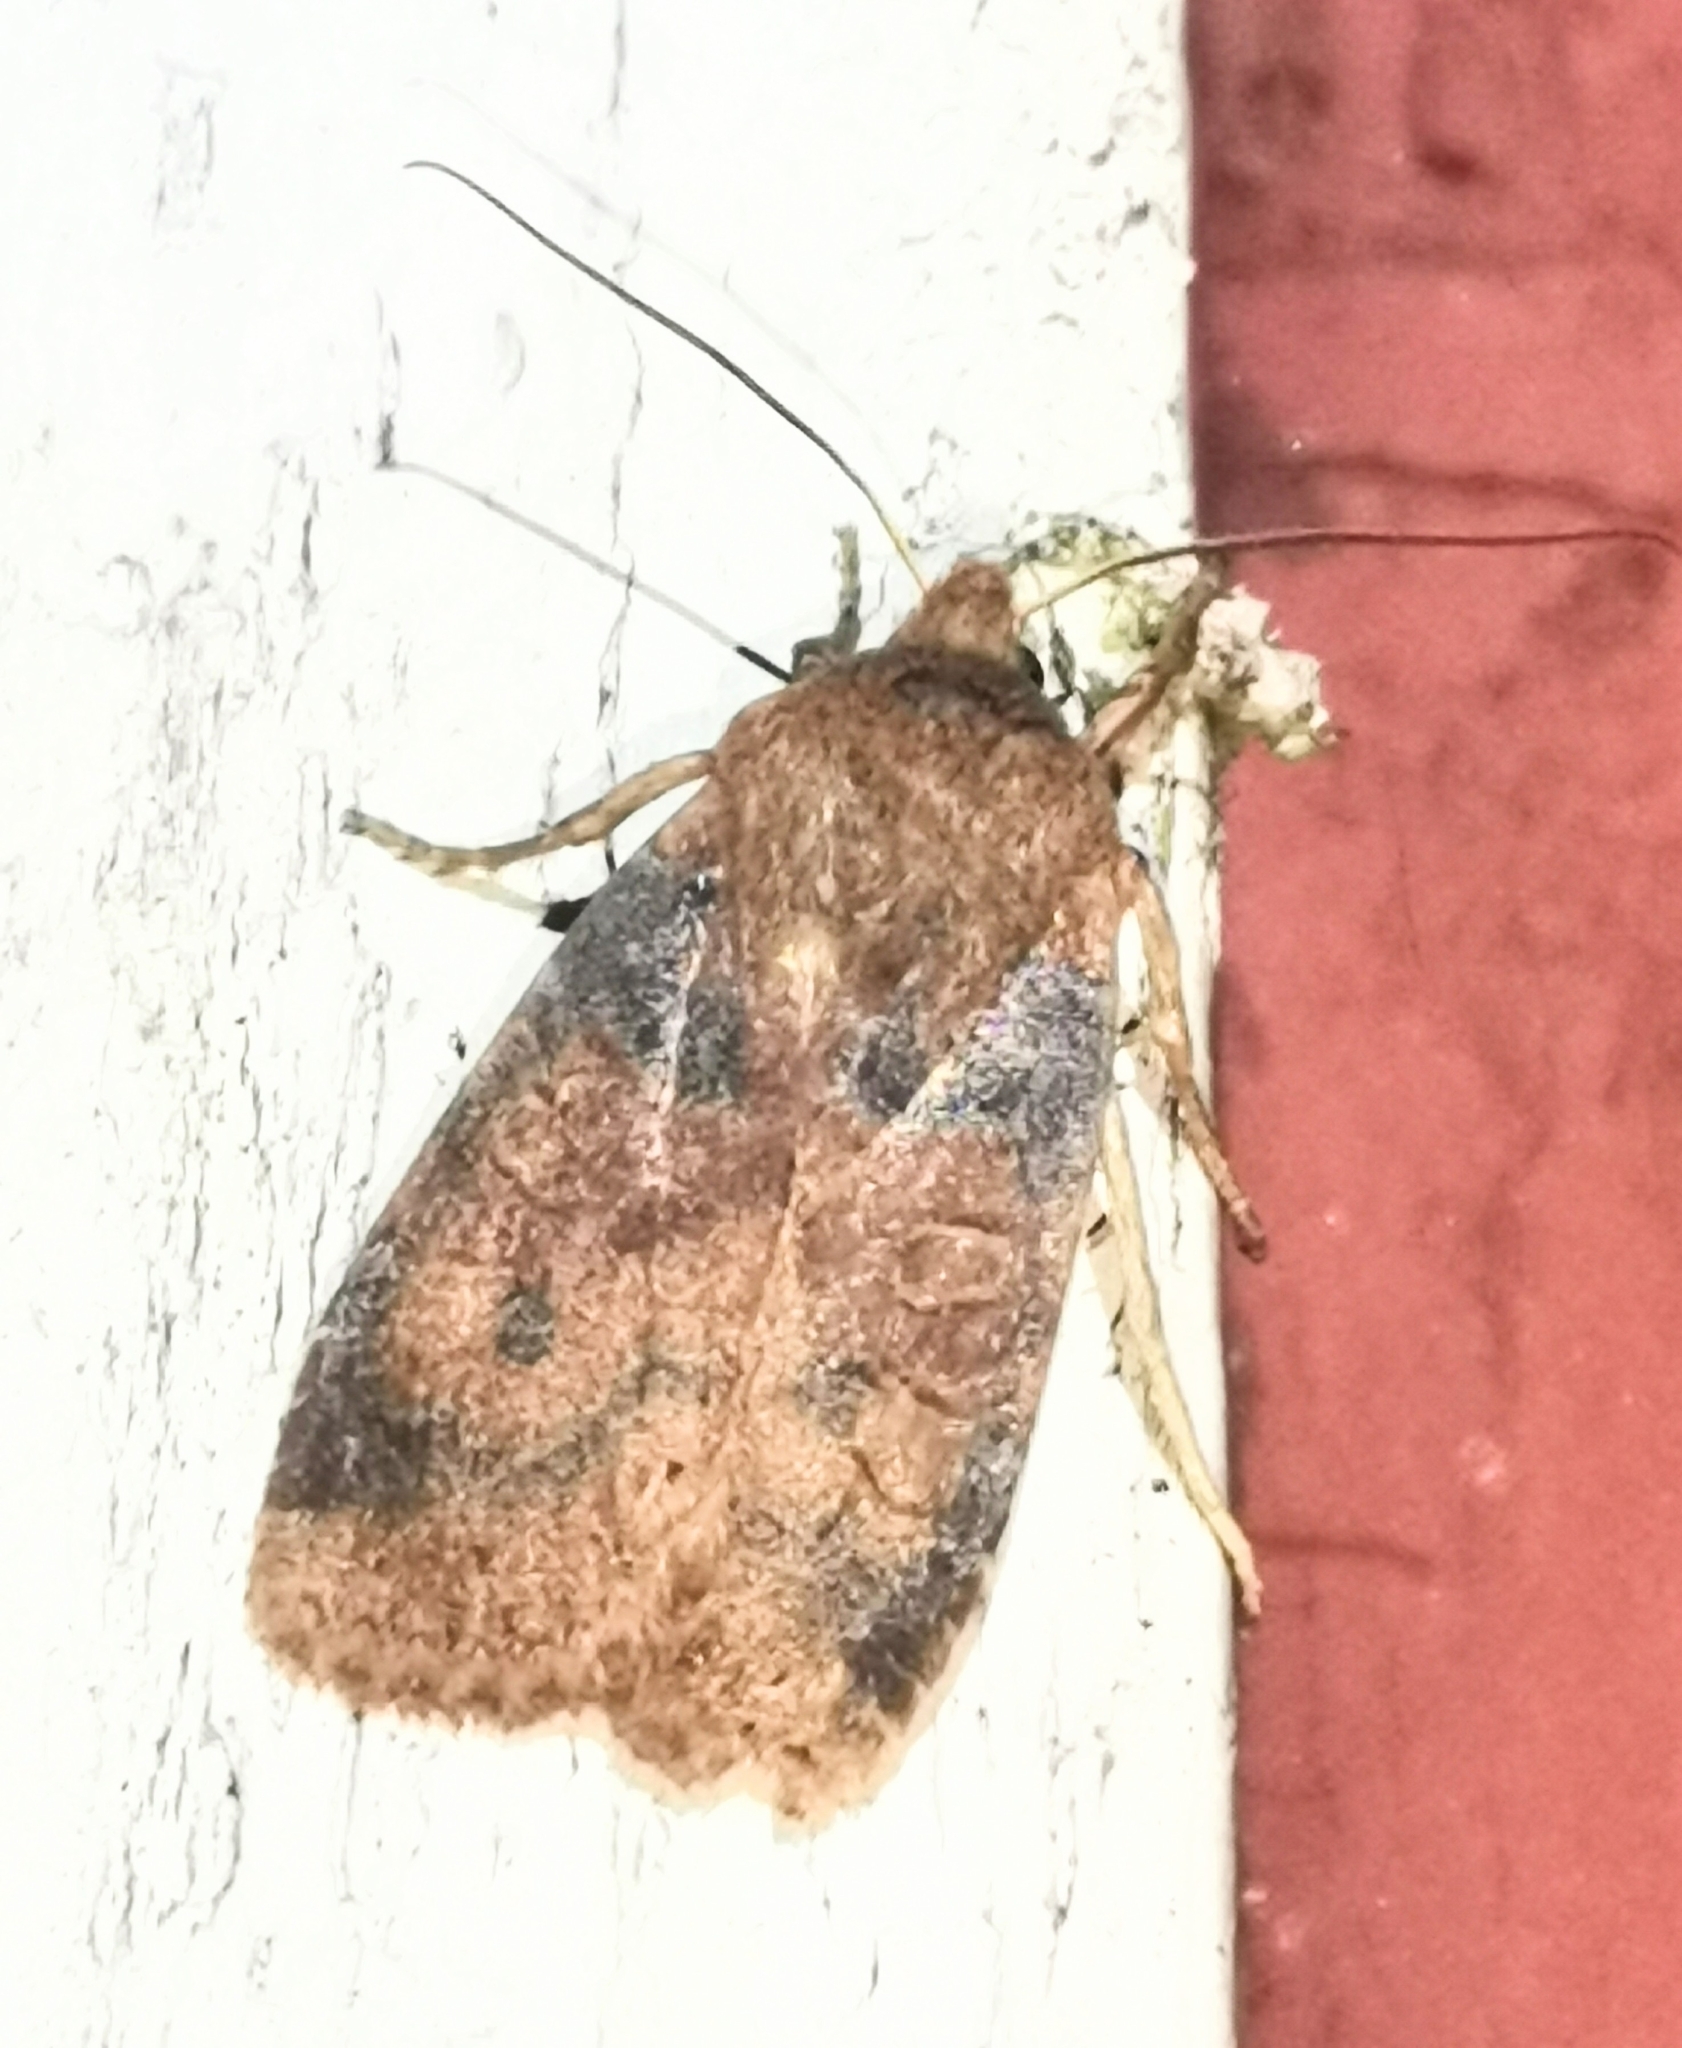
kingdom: Animalia
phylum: Arthropoda
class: Insecta
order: Lepidoptera
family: Noctuidae
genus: Conistra
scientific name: Conistra vaccinii
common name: Chestnut
